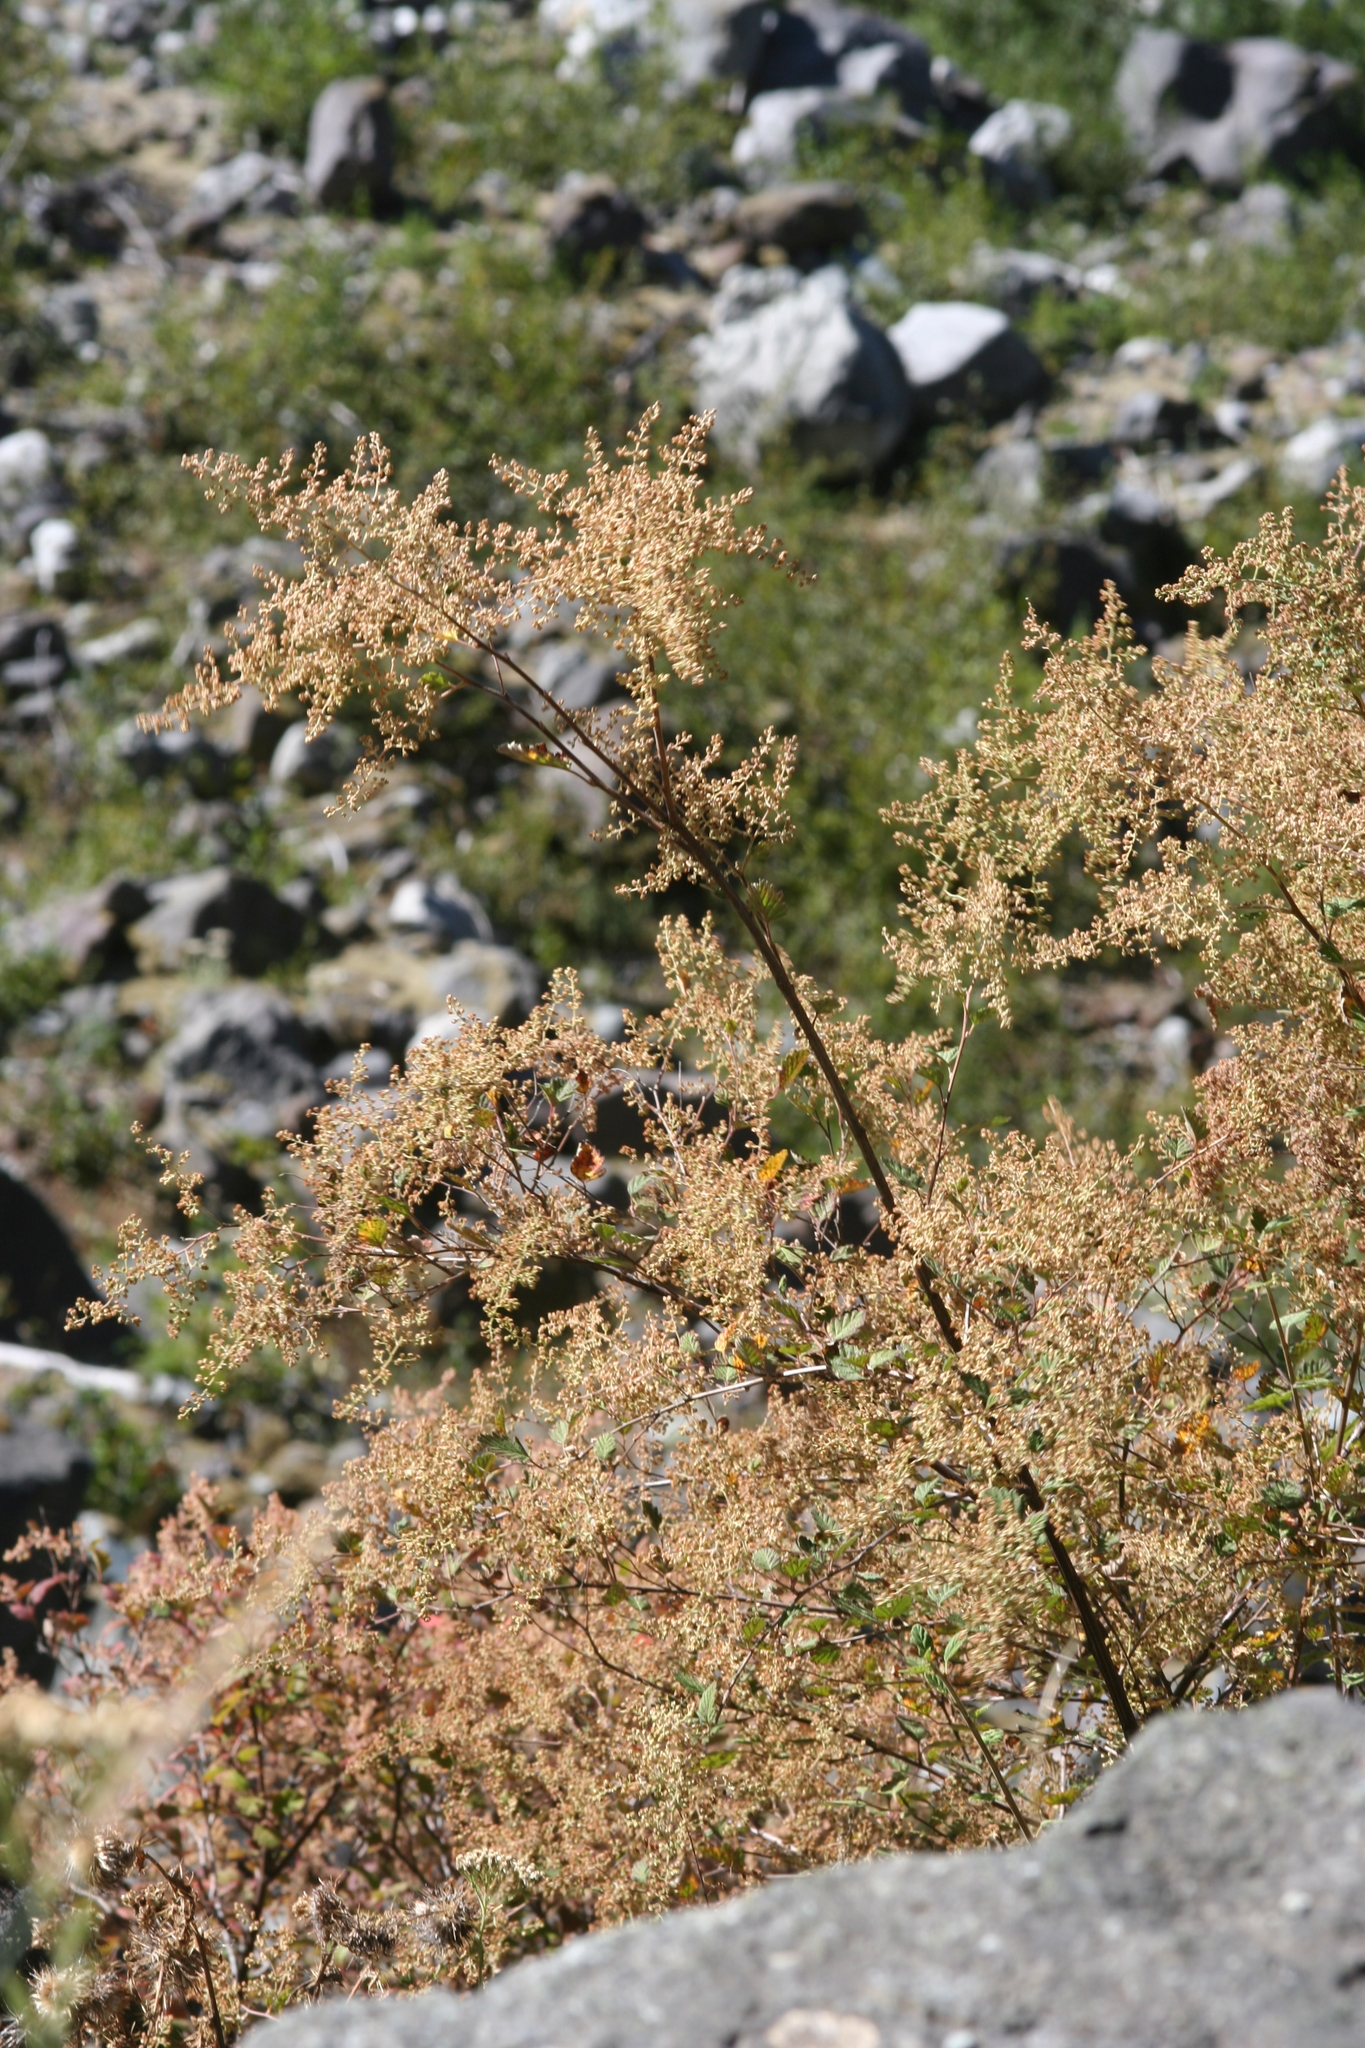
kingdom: Plantae
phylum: Tracheophyta
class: Magnoliopsida
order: Rosales
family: Rosaceae
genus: Holodiscus
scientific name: Holodiscus discolor
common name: Oceanspray
